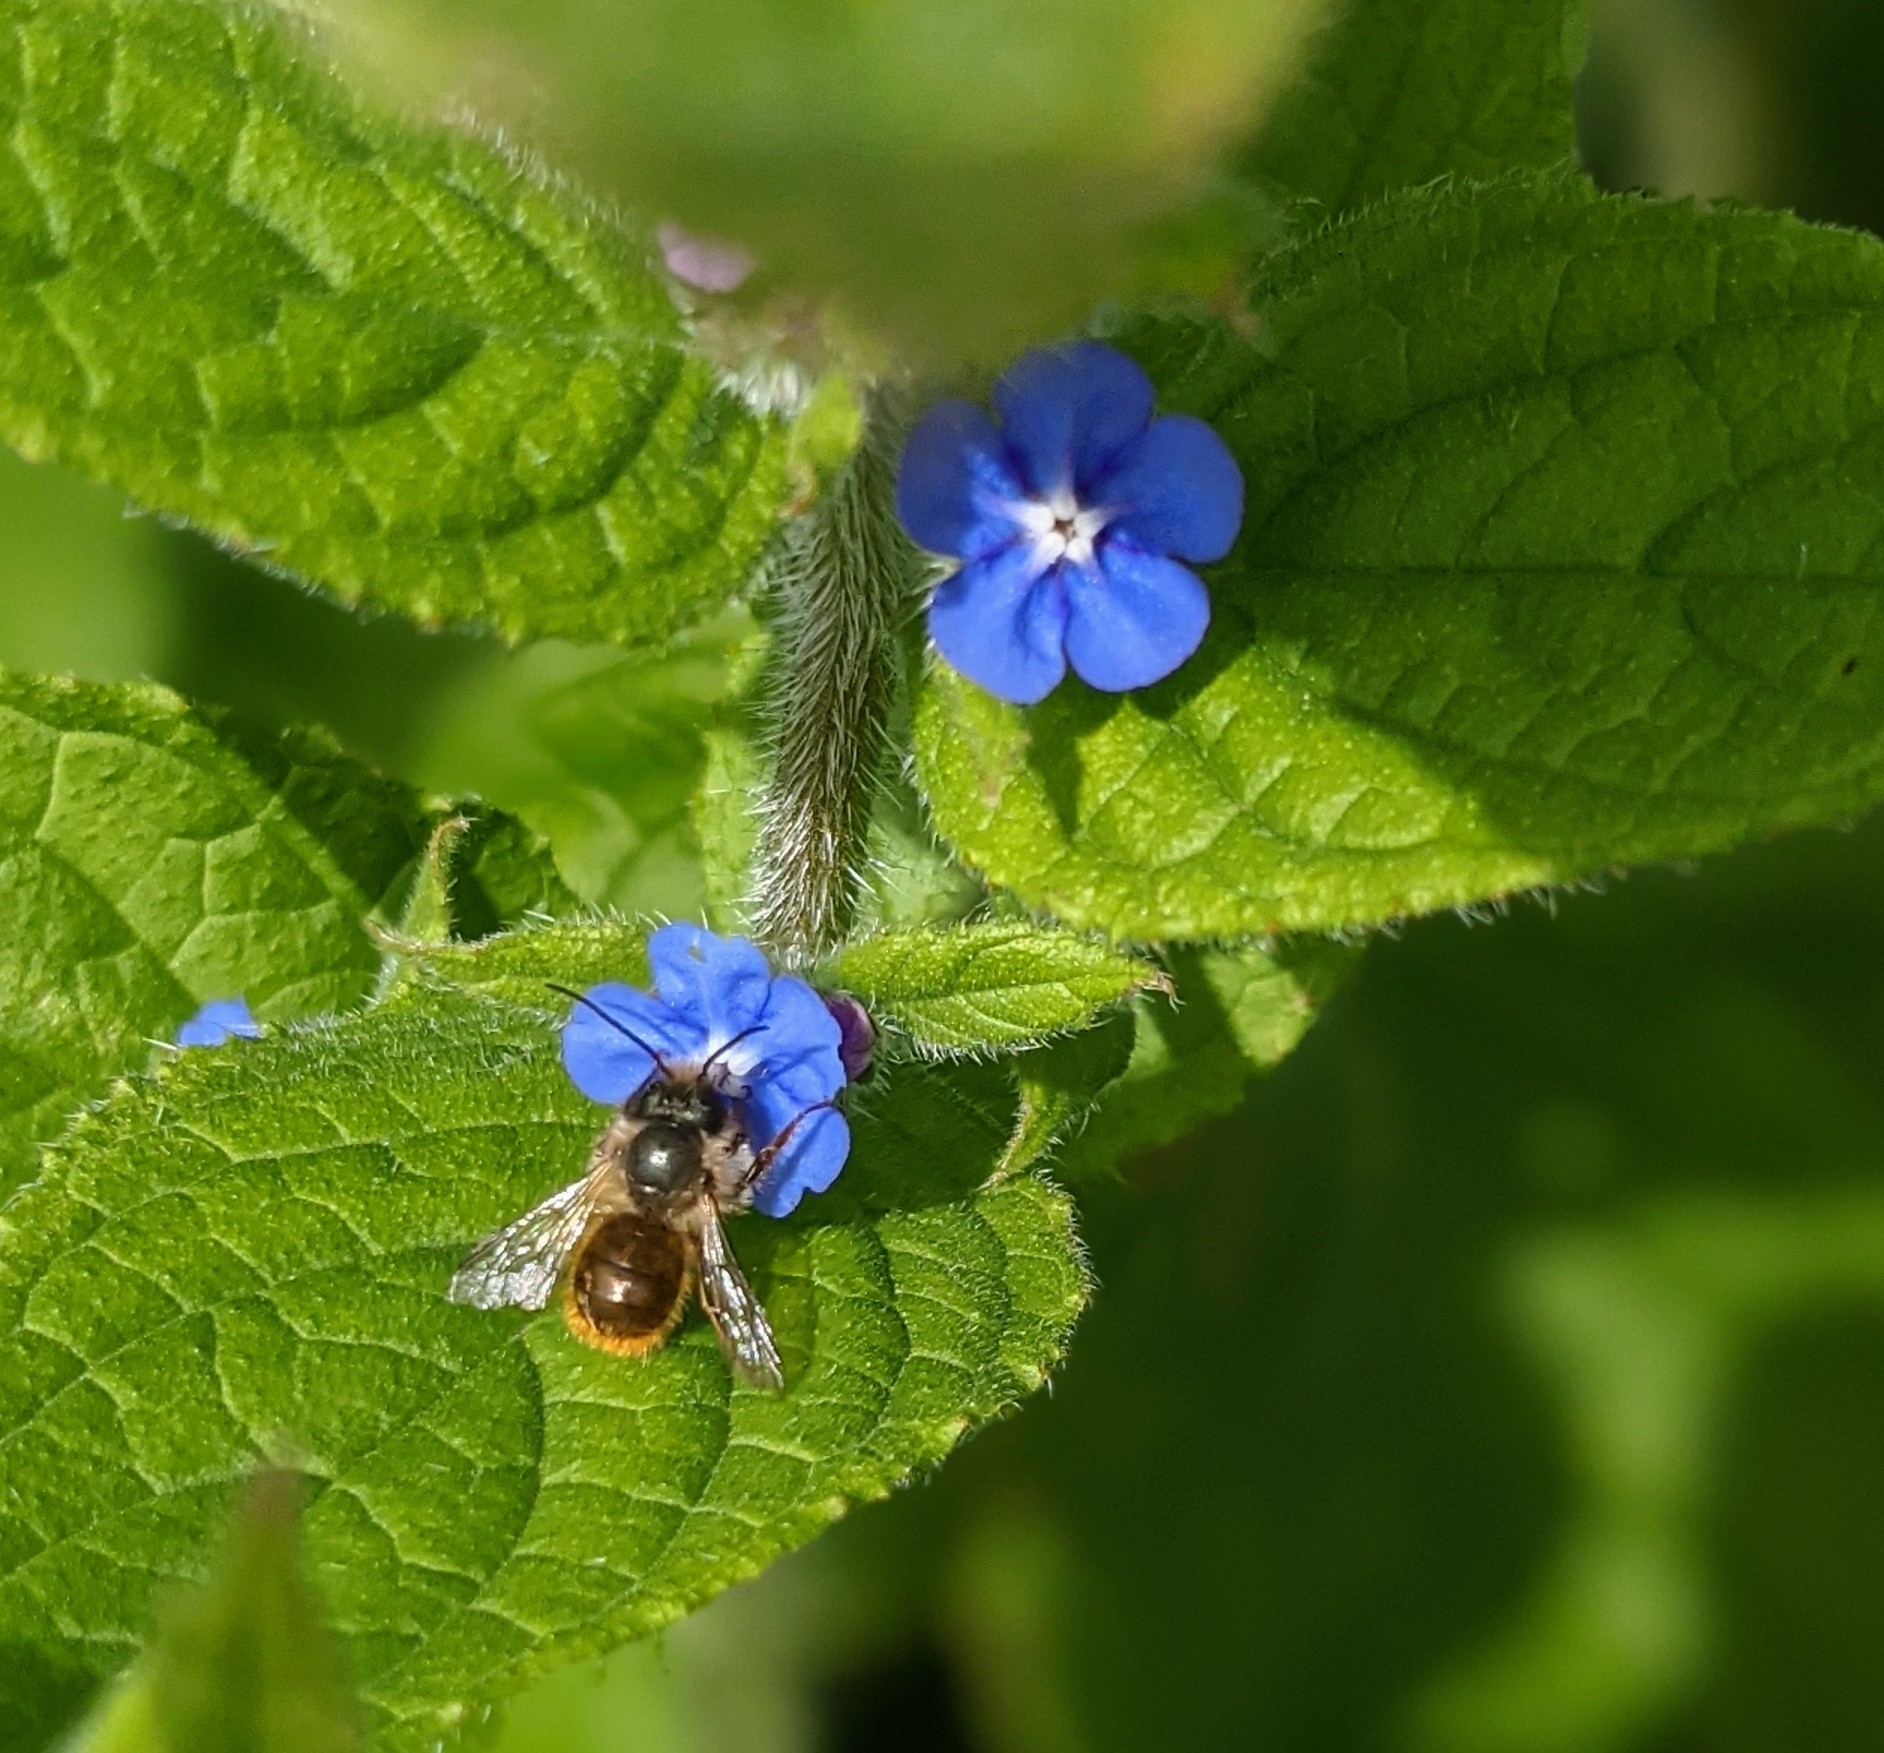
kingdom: Animalia
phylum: Arthropoda
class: Insecta
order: Hymenoptera
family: Megachilidae
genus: Osmia
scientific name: Osmia bicornis
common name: Red mason bee
